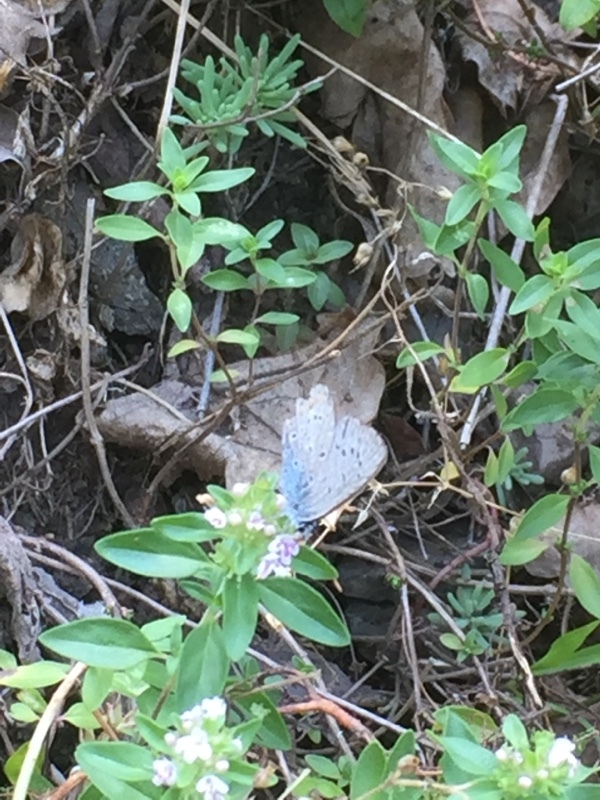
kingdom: Animalia
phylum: Arthropoda
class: Insecta
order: Lepidoptera
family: Lycaenidae
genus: Polyommatus
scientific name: Polyommatus icarus
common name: Common blue
